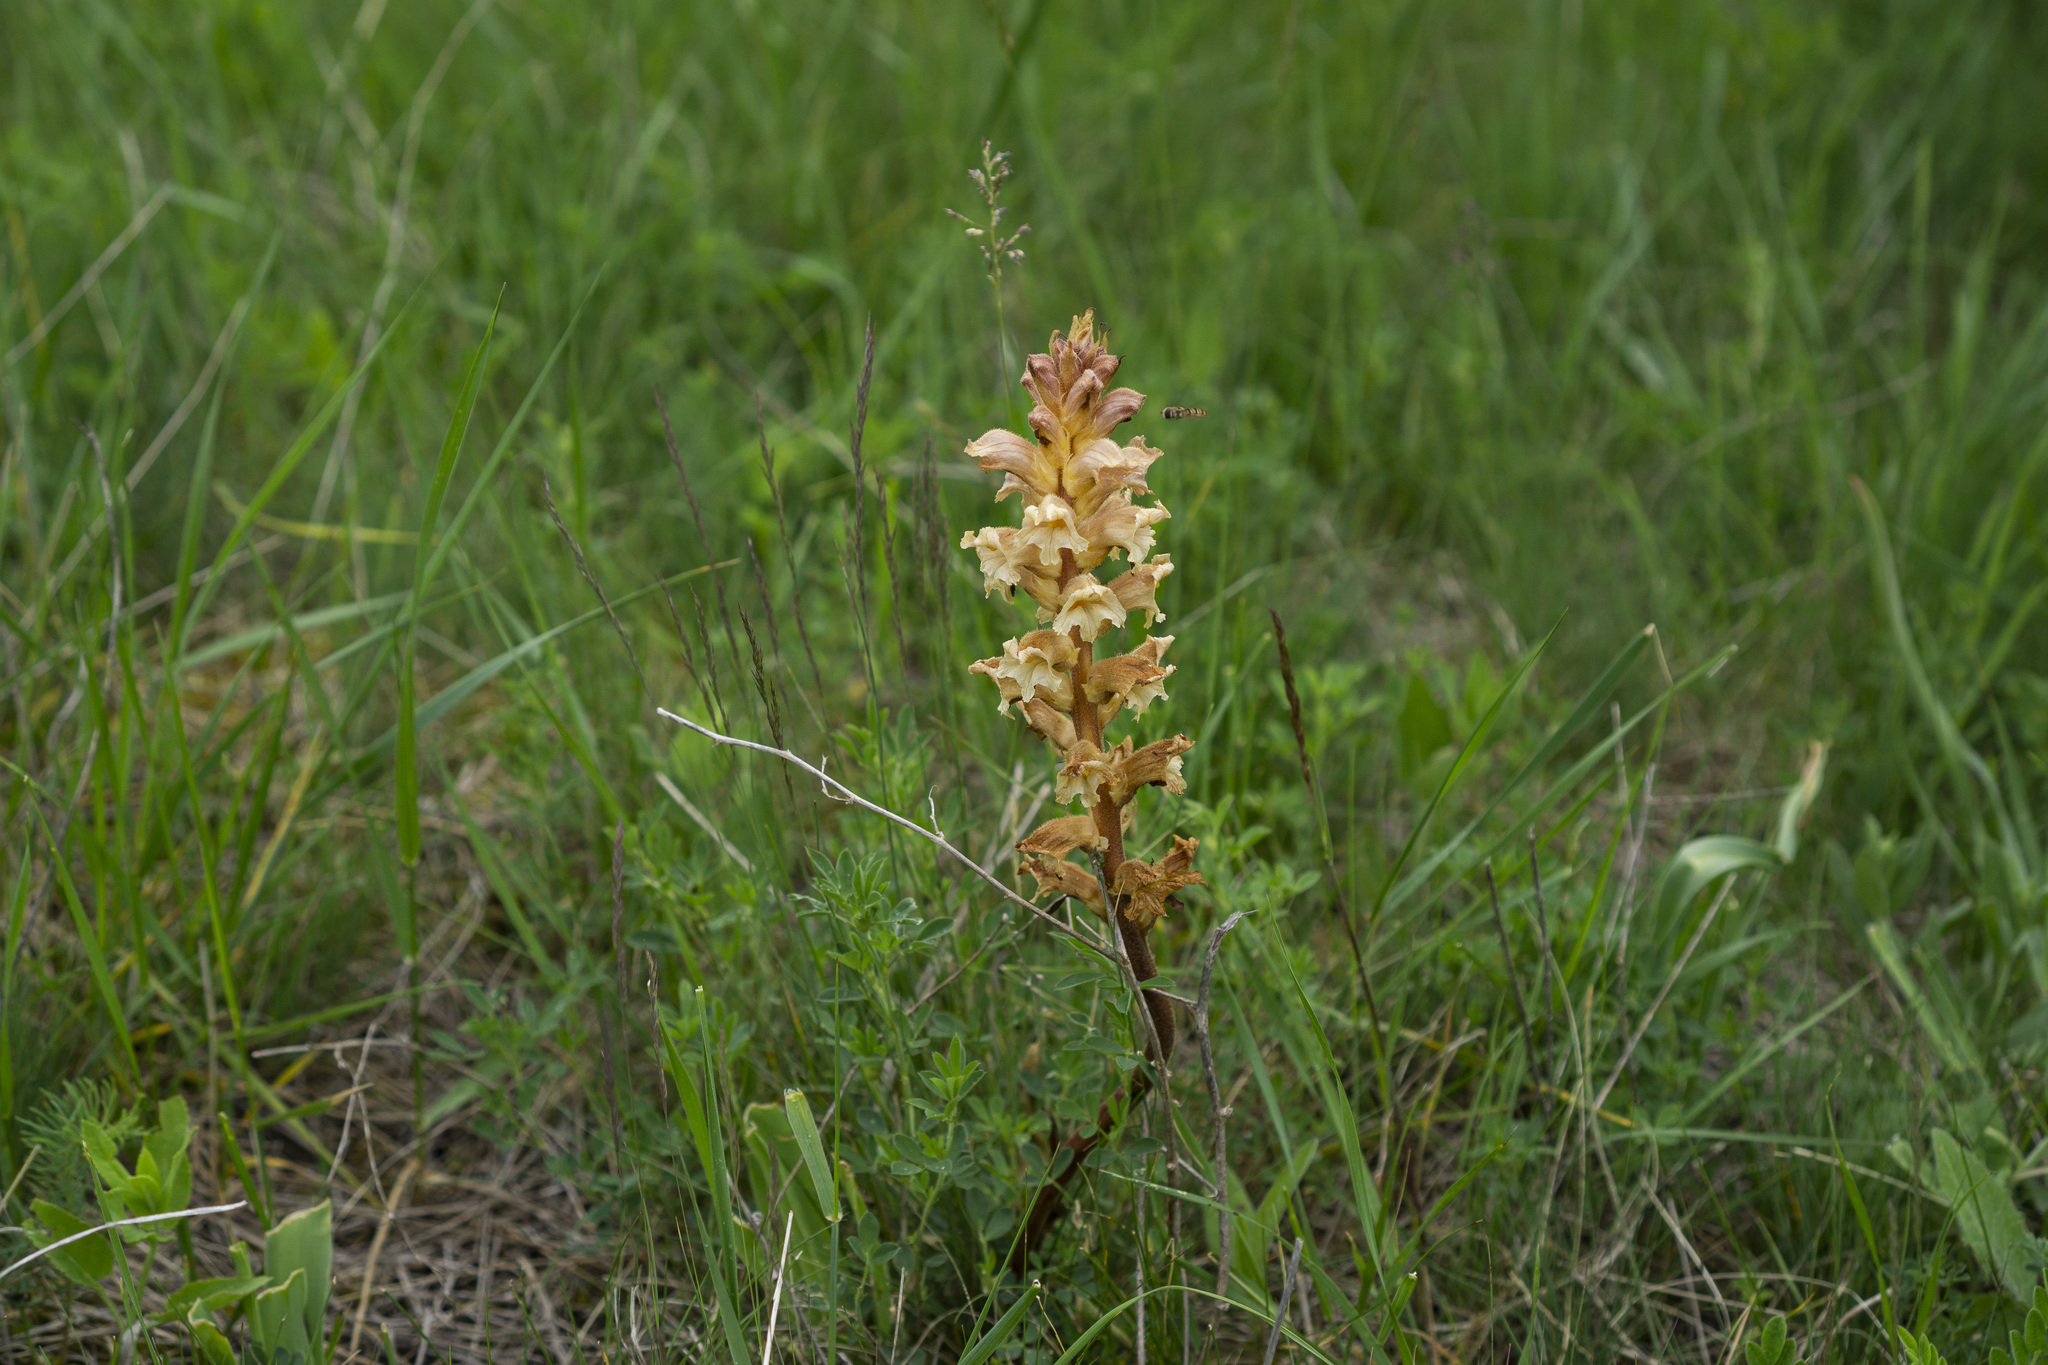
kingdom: Plantae
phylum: Tracheophyta
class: Magnoliopsida
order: Lamiales
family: Orobanchaceae
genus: Orobanche
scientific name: Orobanche lutea
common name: Yellow broomrape
